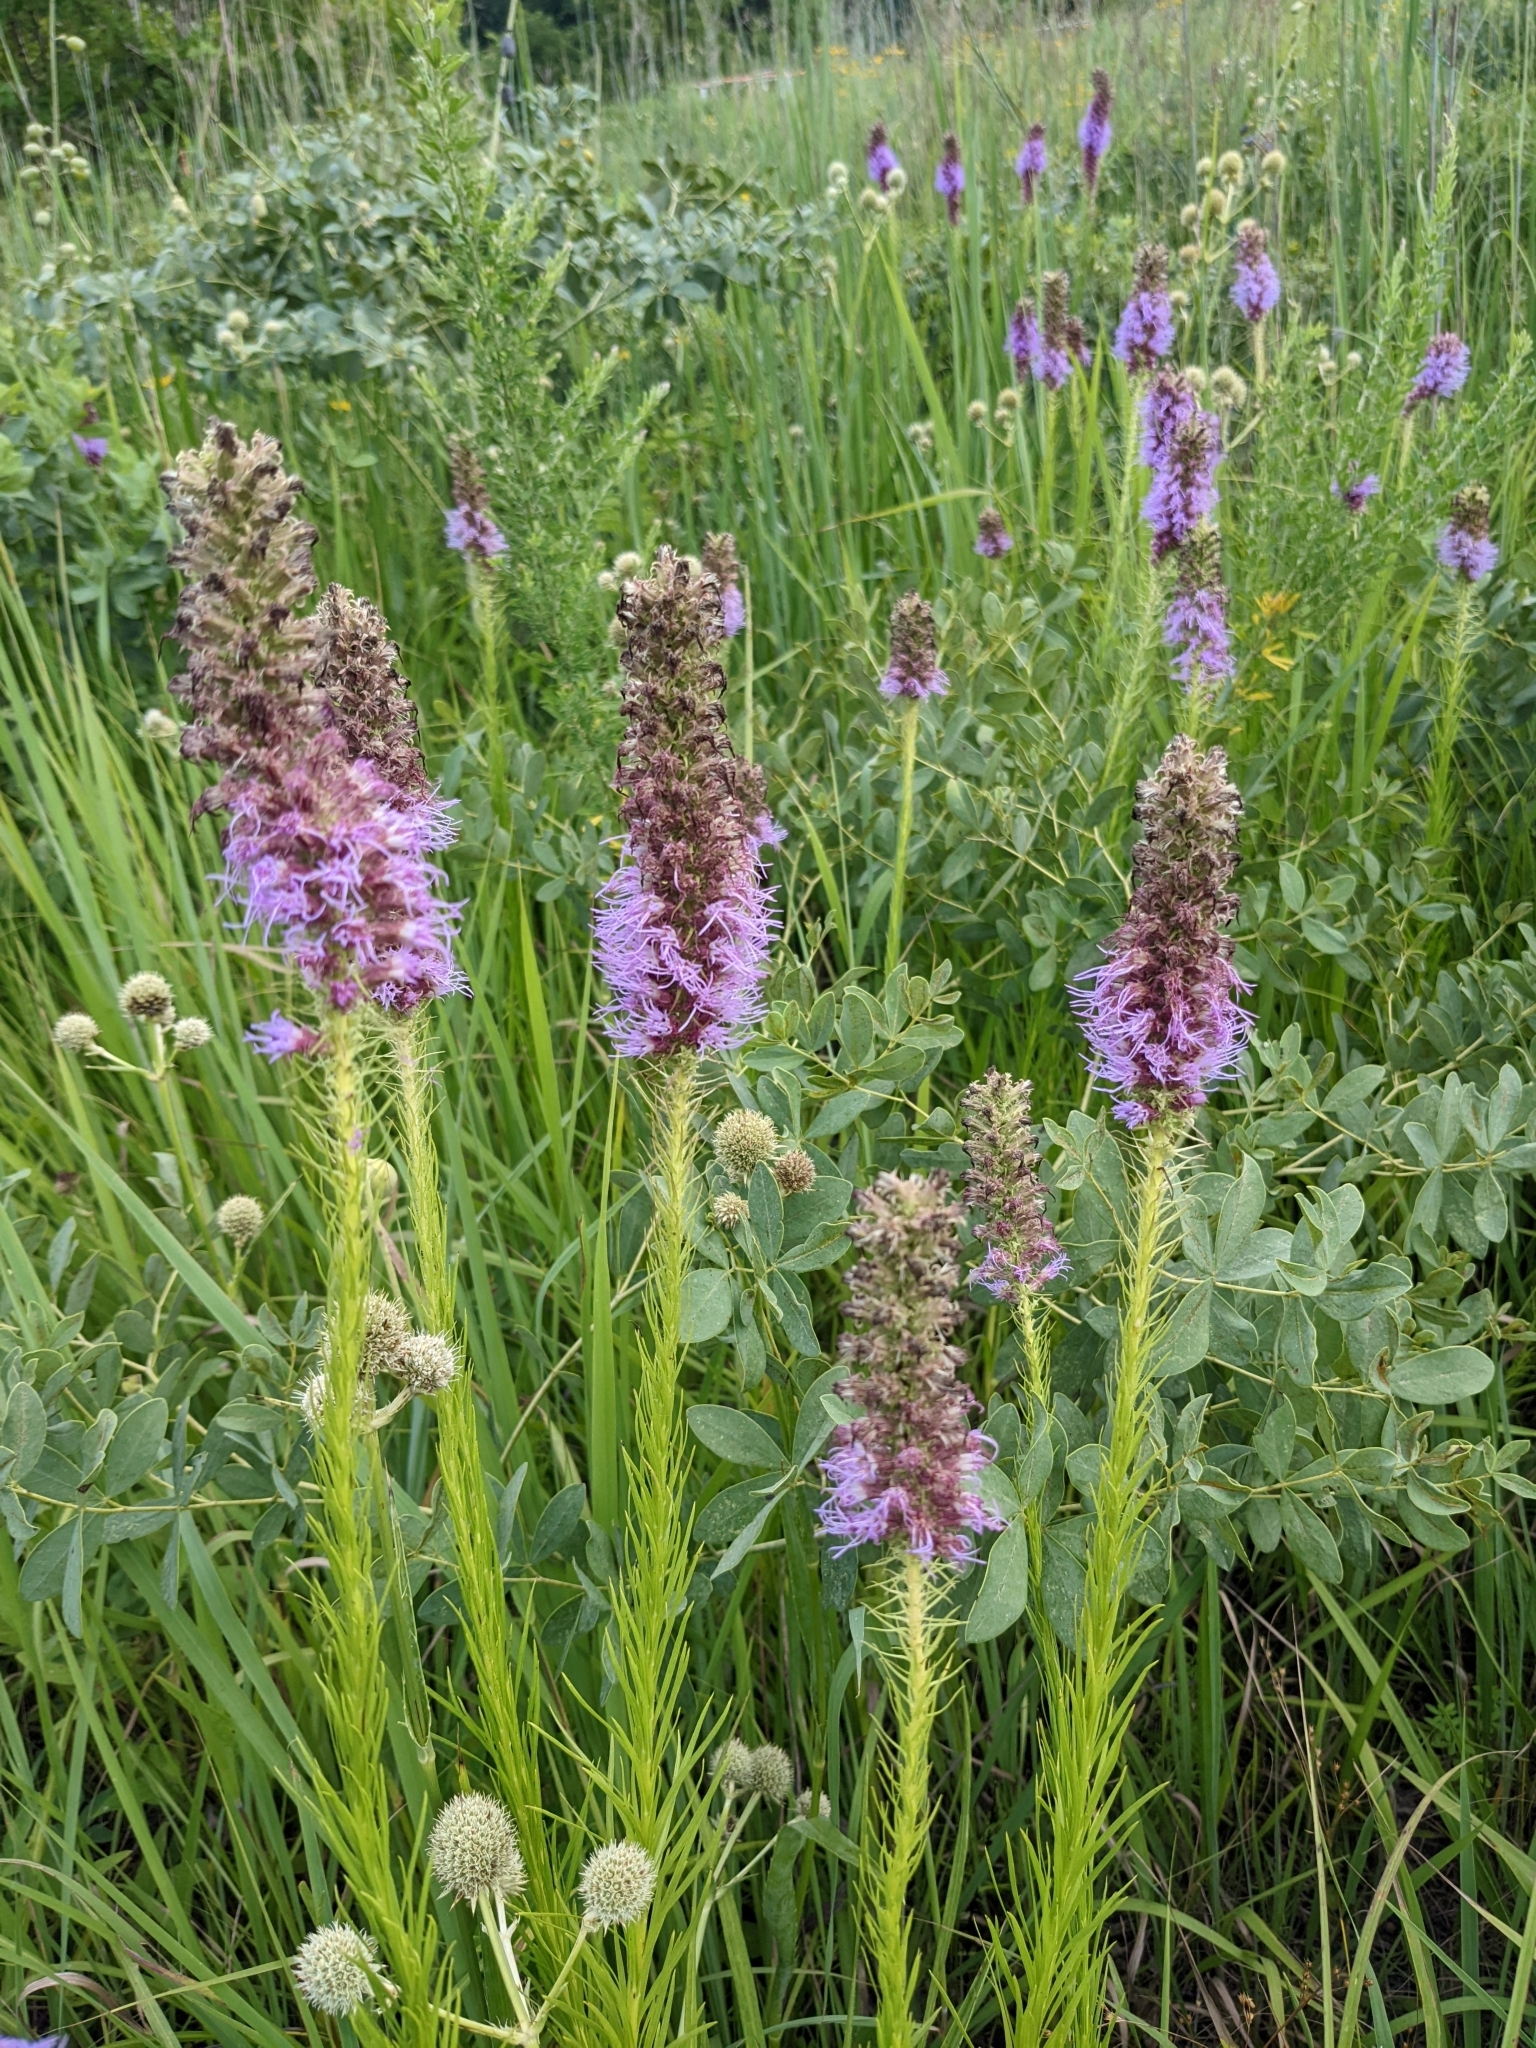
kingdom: Plantae
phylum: Tracheophyta
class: Magnoliopsida
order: Asterales
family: Asteraceae
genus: Liatris
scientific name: Liatris pycnostachya
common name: Cattail gayfeather
